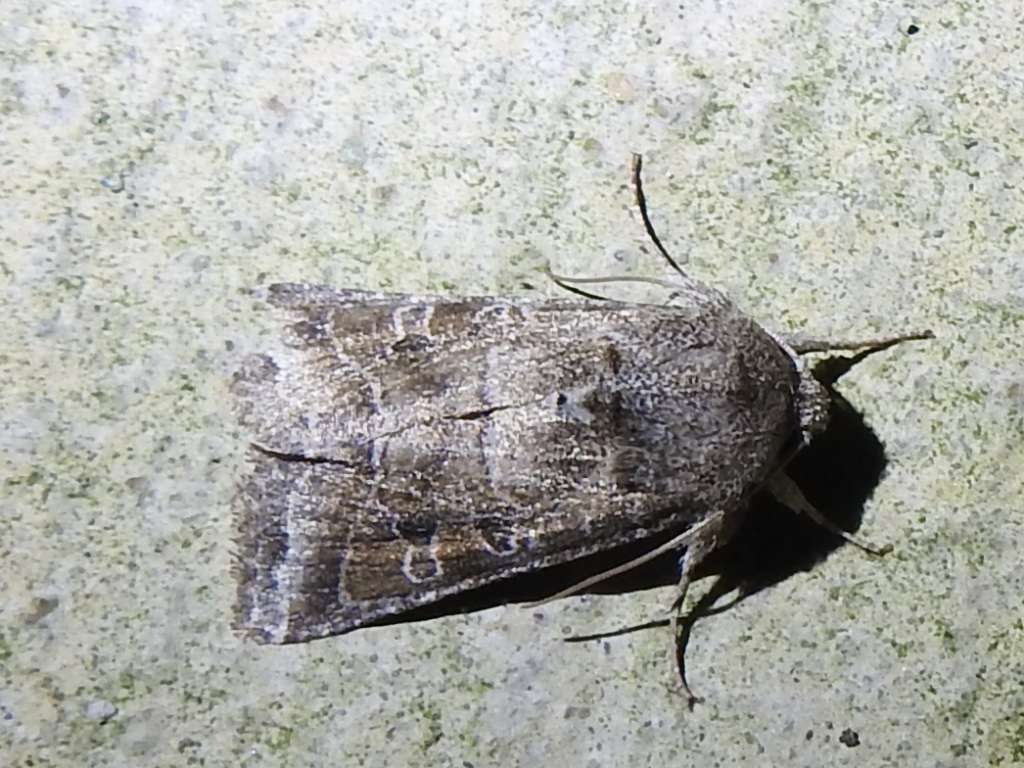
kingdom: Animalia
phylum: Arthropoda
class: Insecta
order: Lepidoptera
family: Noctuidae
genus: Lacinipolia
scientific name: Lacinipolia erecta
